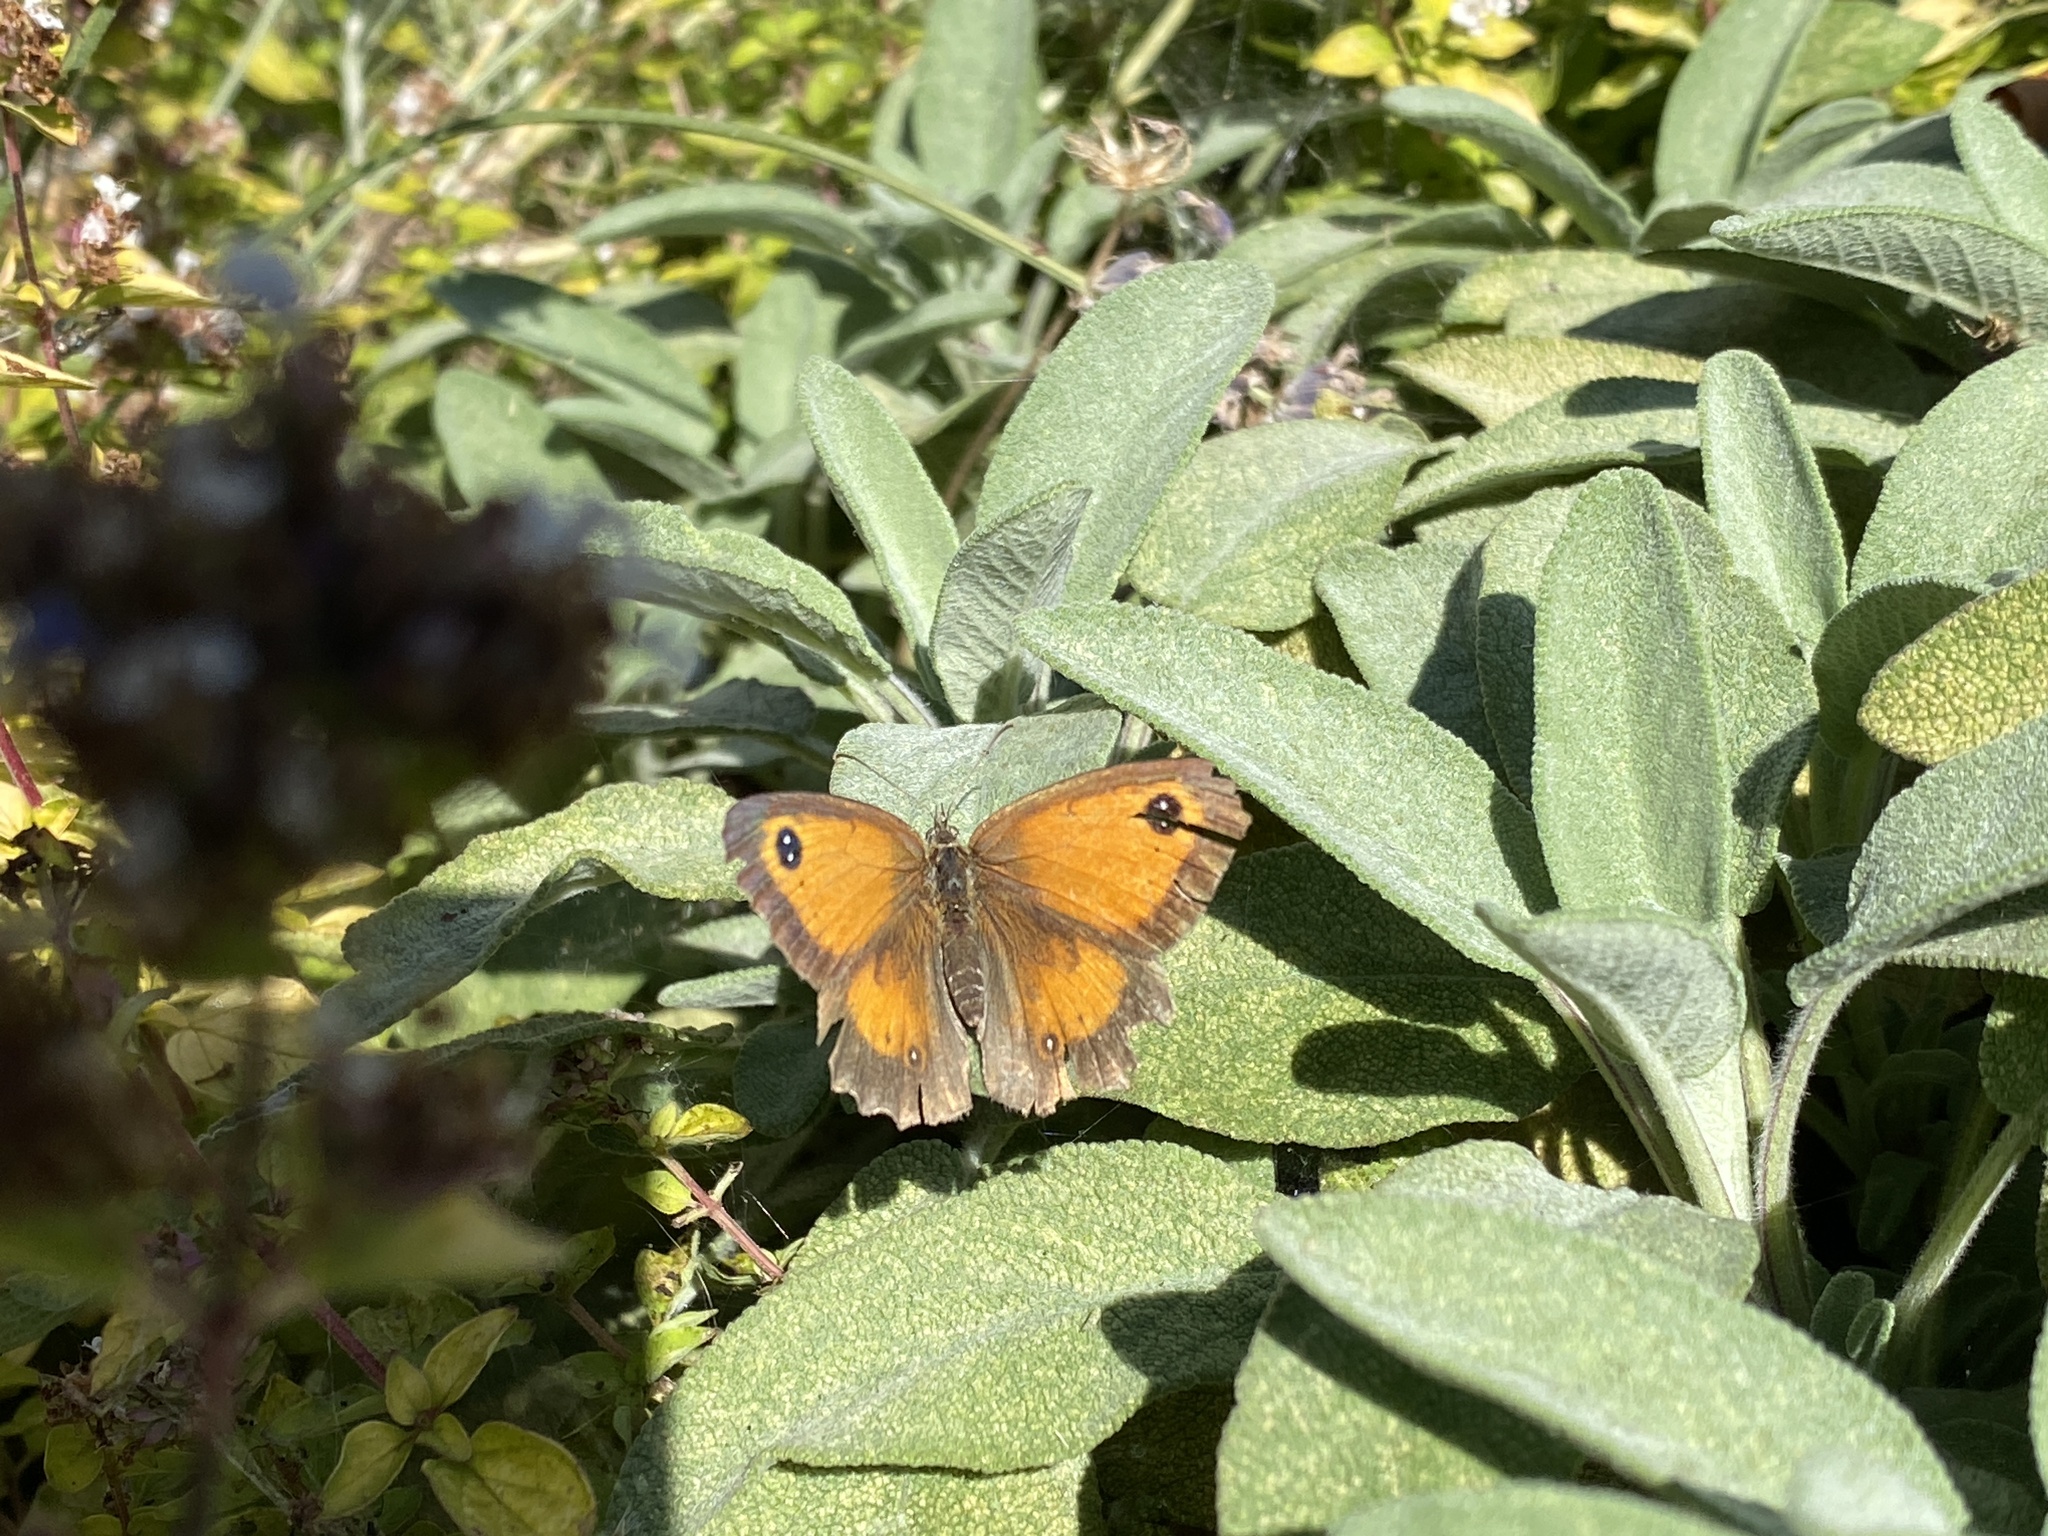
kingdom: Animalia
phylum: Arthropoda
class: Insecta
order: Lepidoptera
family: Nymphalidae
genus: Pyronia
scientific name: Pyronia tithonus
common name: Gatekeeper
